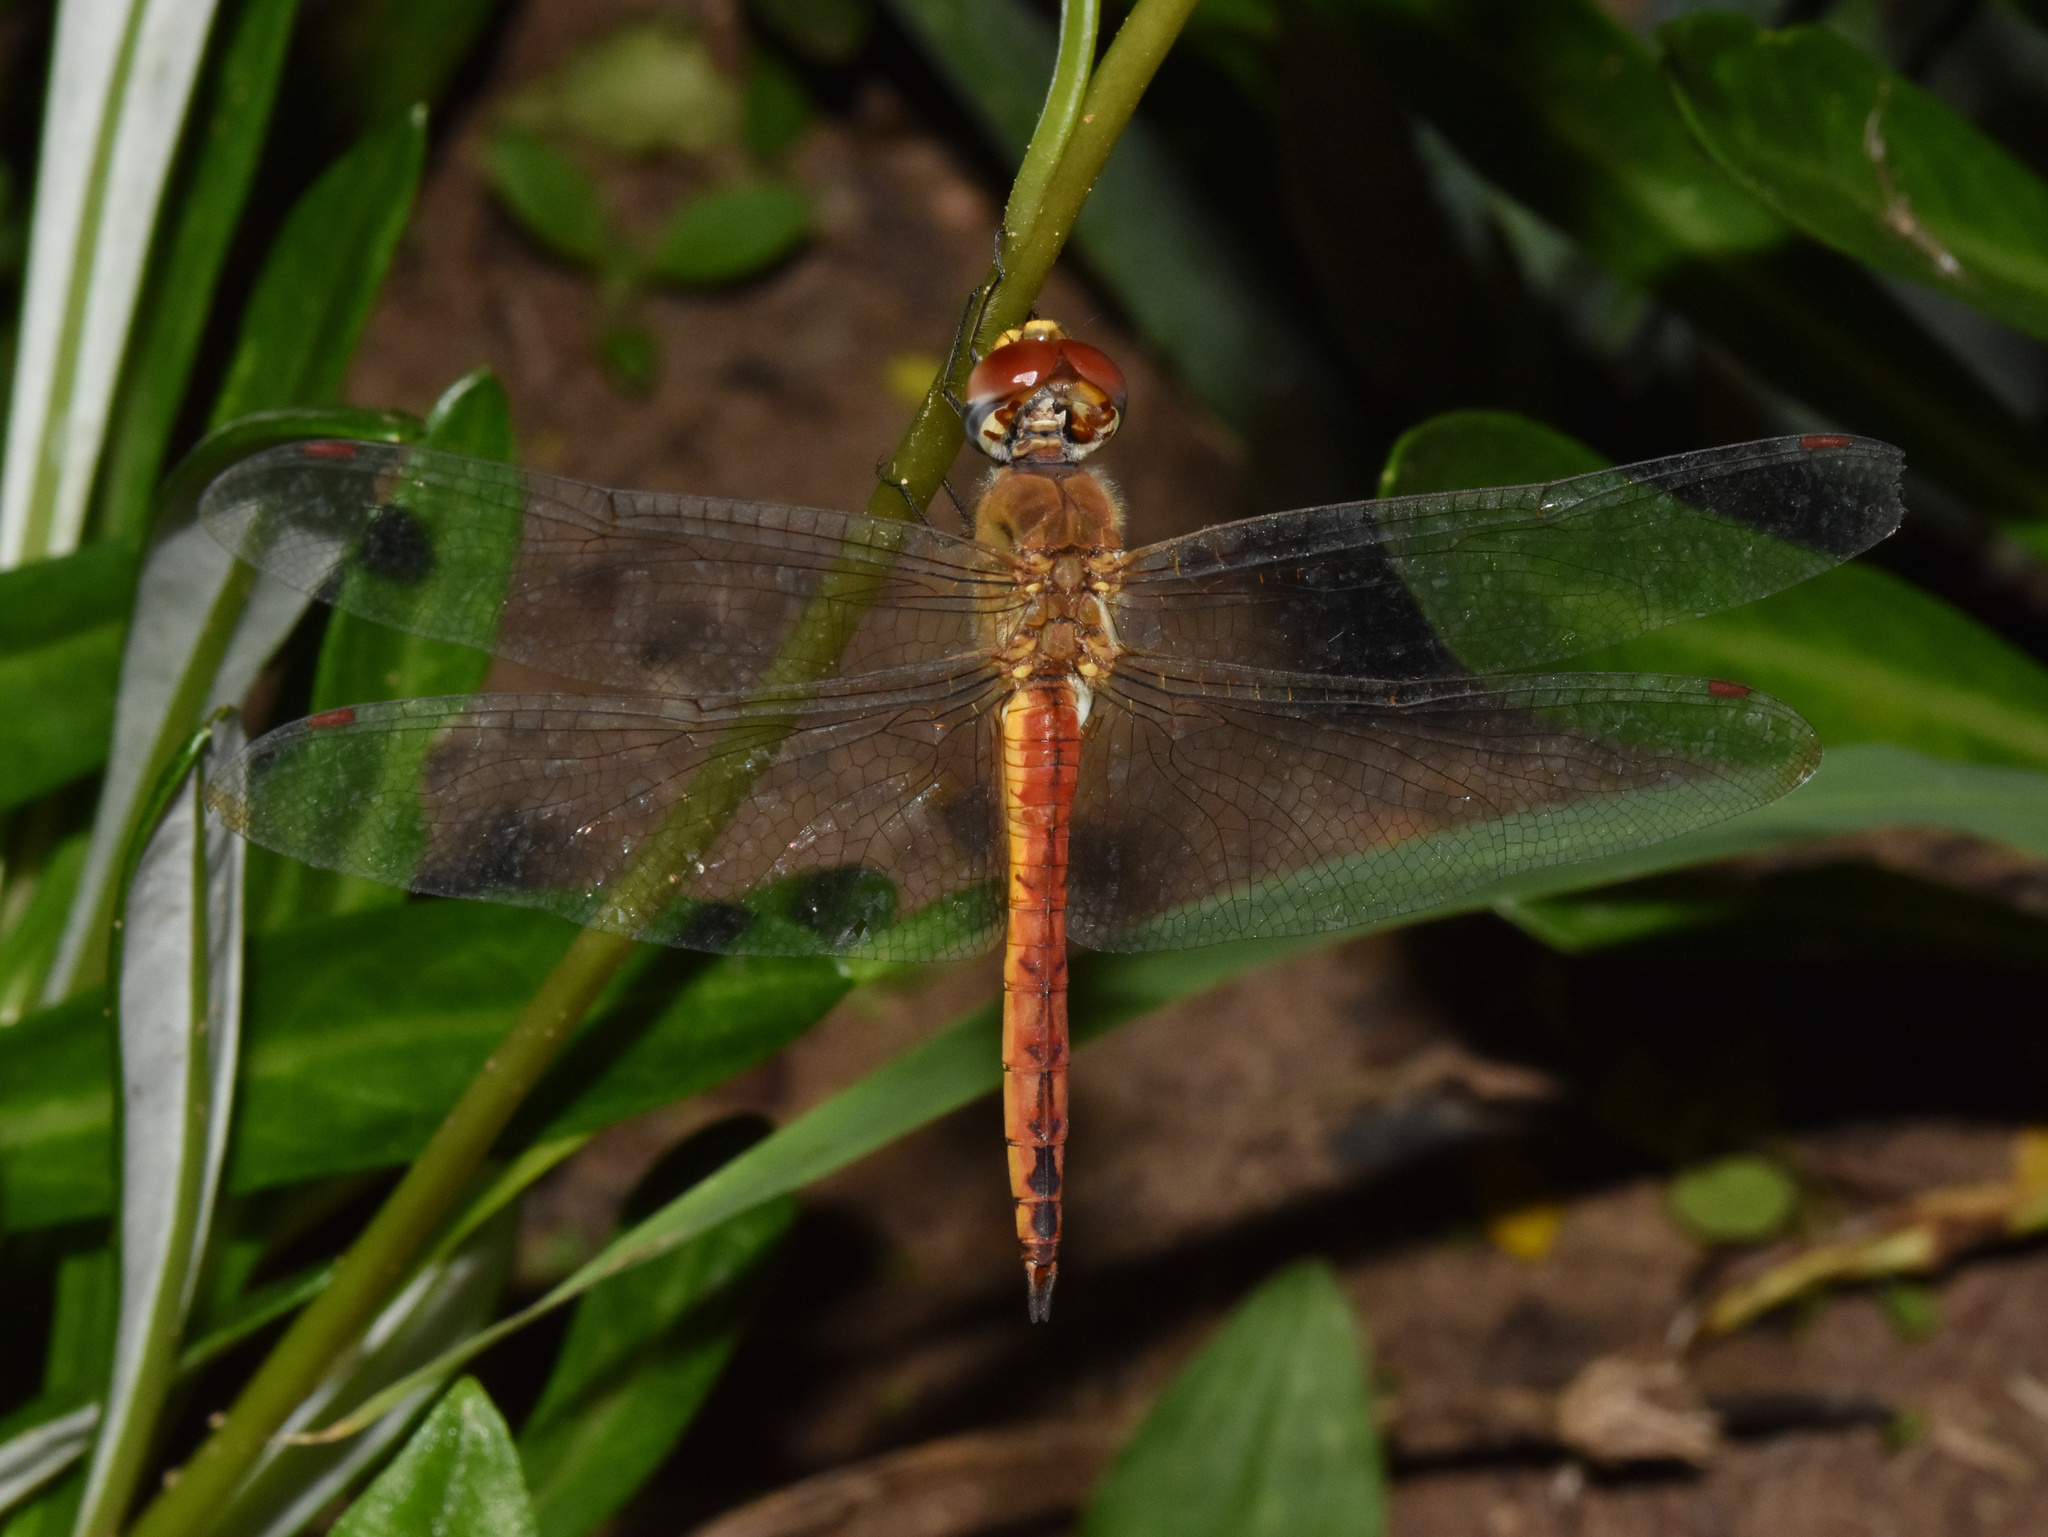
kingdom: Animalia
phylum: Arthropoda
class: Insecta
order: Odonata
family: Libellulidae
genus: Pantala
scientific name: Pantala flavescens
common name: Wandering glider
